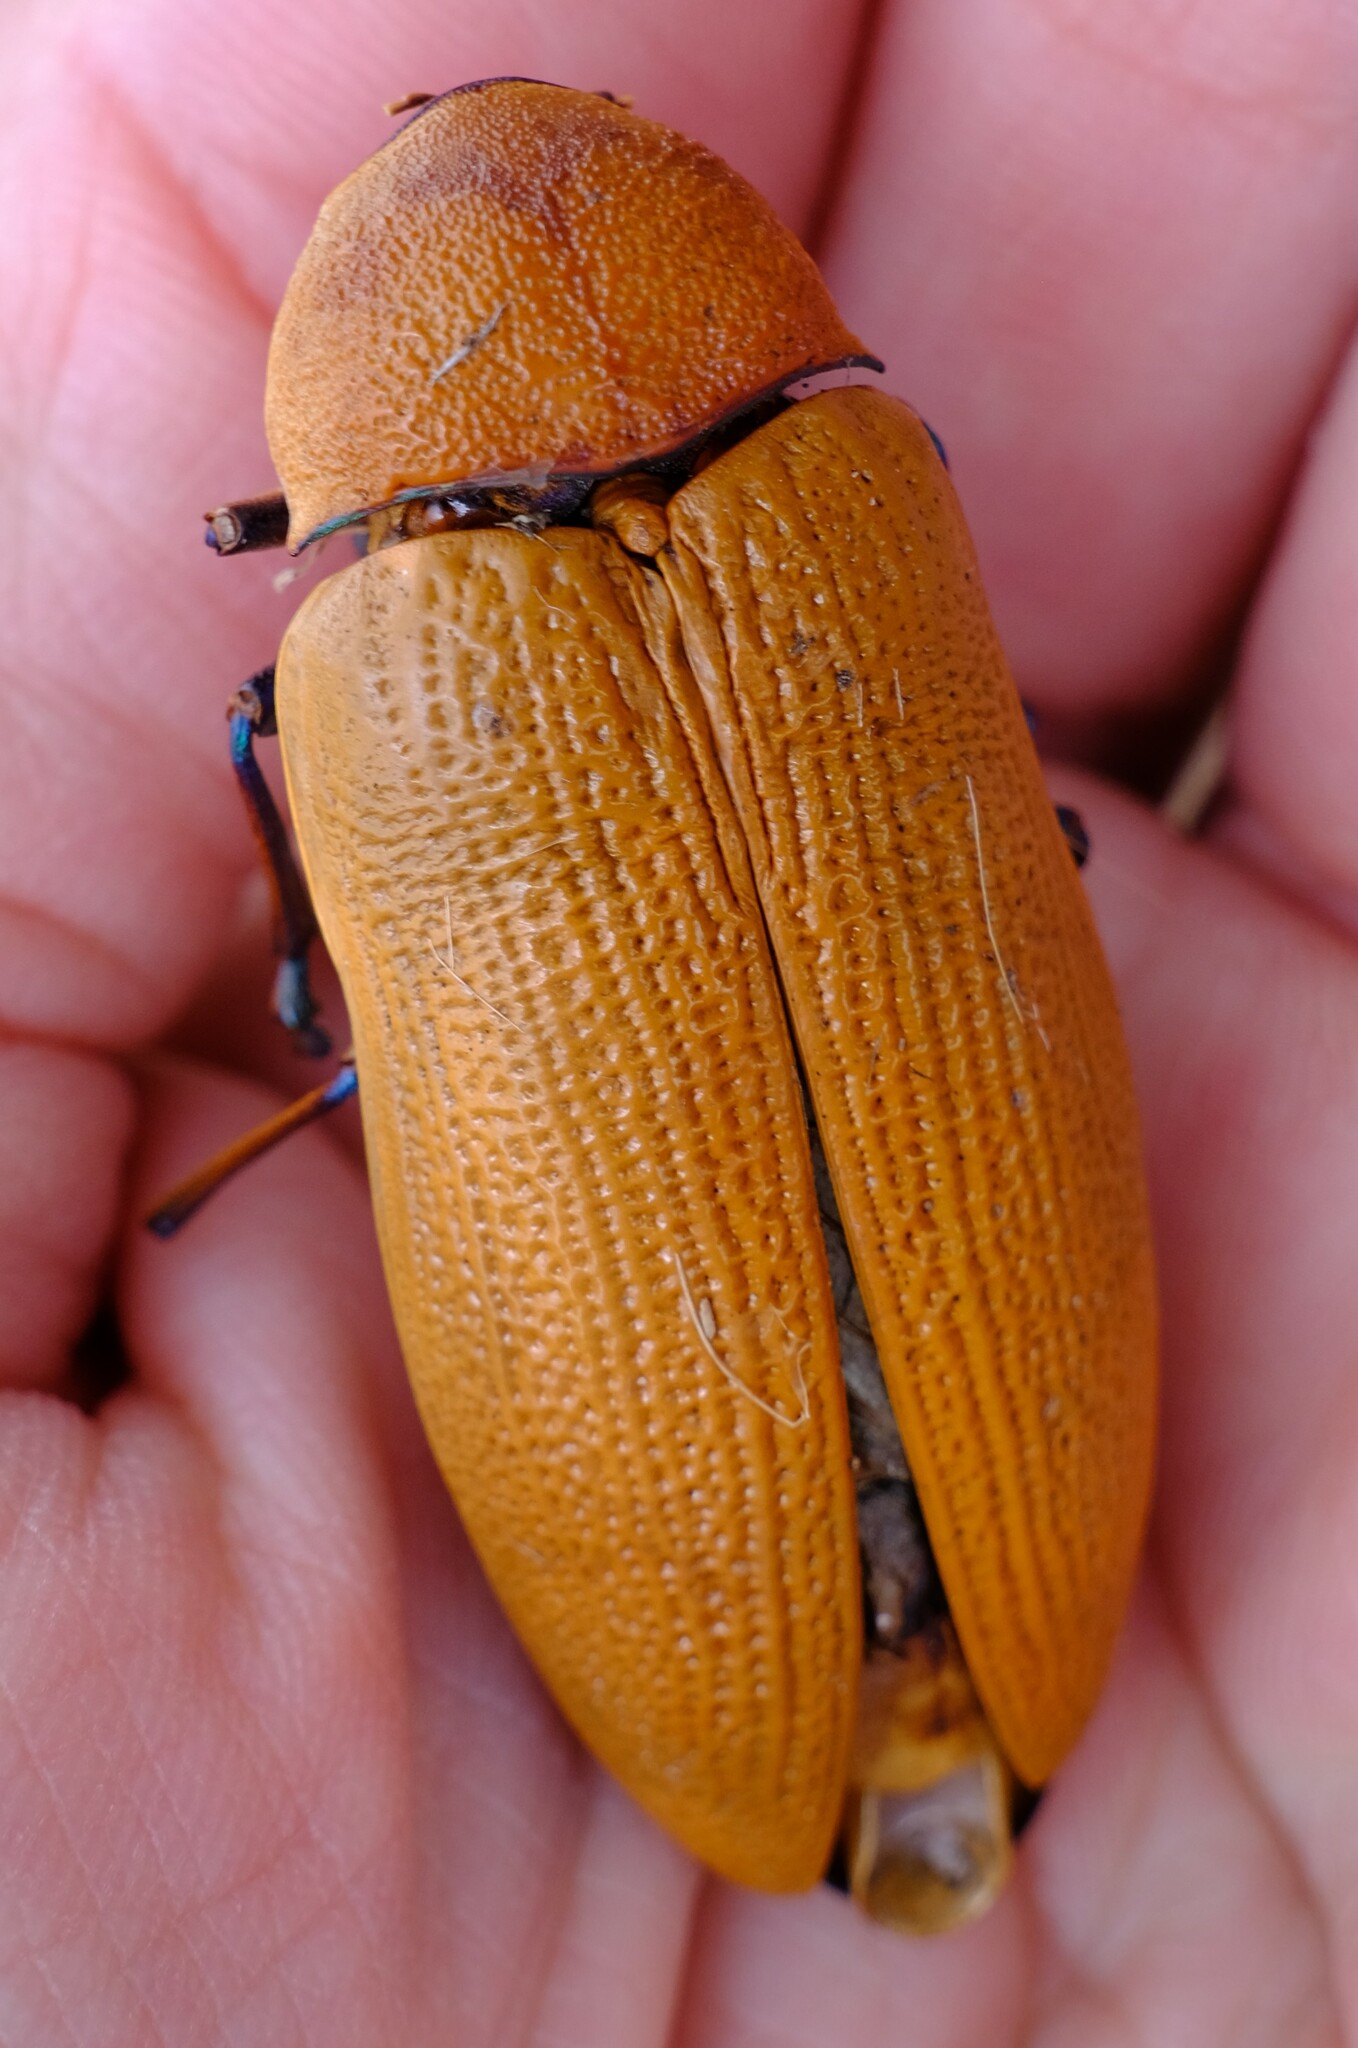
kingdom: Animalia
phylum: Arthropoda
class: Insecta
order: Coleoptera
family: Buprestidae
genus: Julodimorpha
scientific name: Julodimorpha bakewellii
